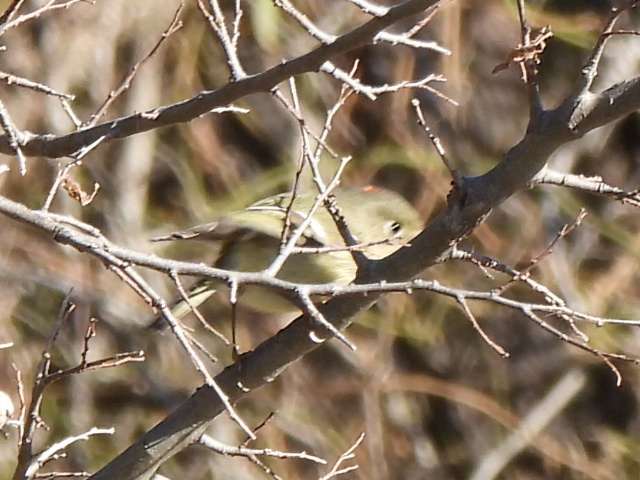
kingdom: Animalia
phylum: Chordata
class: Aves
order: Passeriformes
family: Regulidae
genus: Regulus
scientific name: Regulus calendula
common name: Ruby-crowned kinglet
